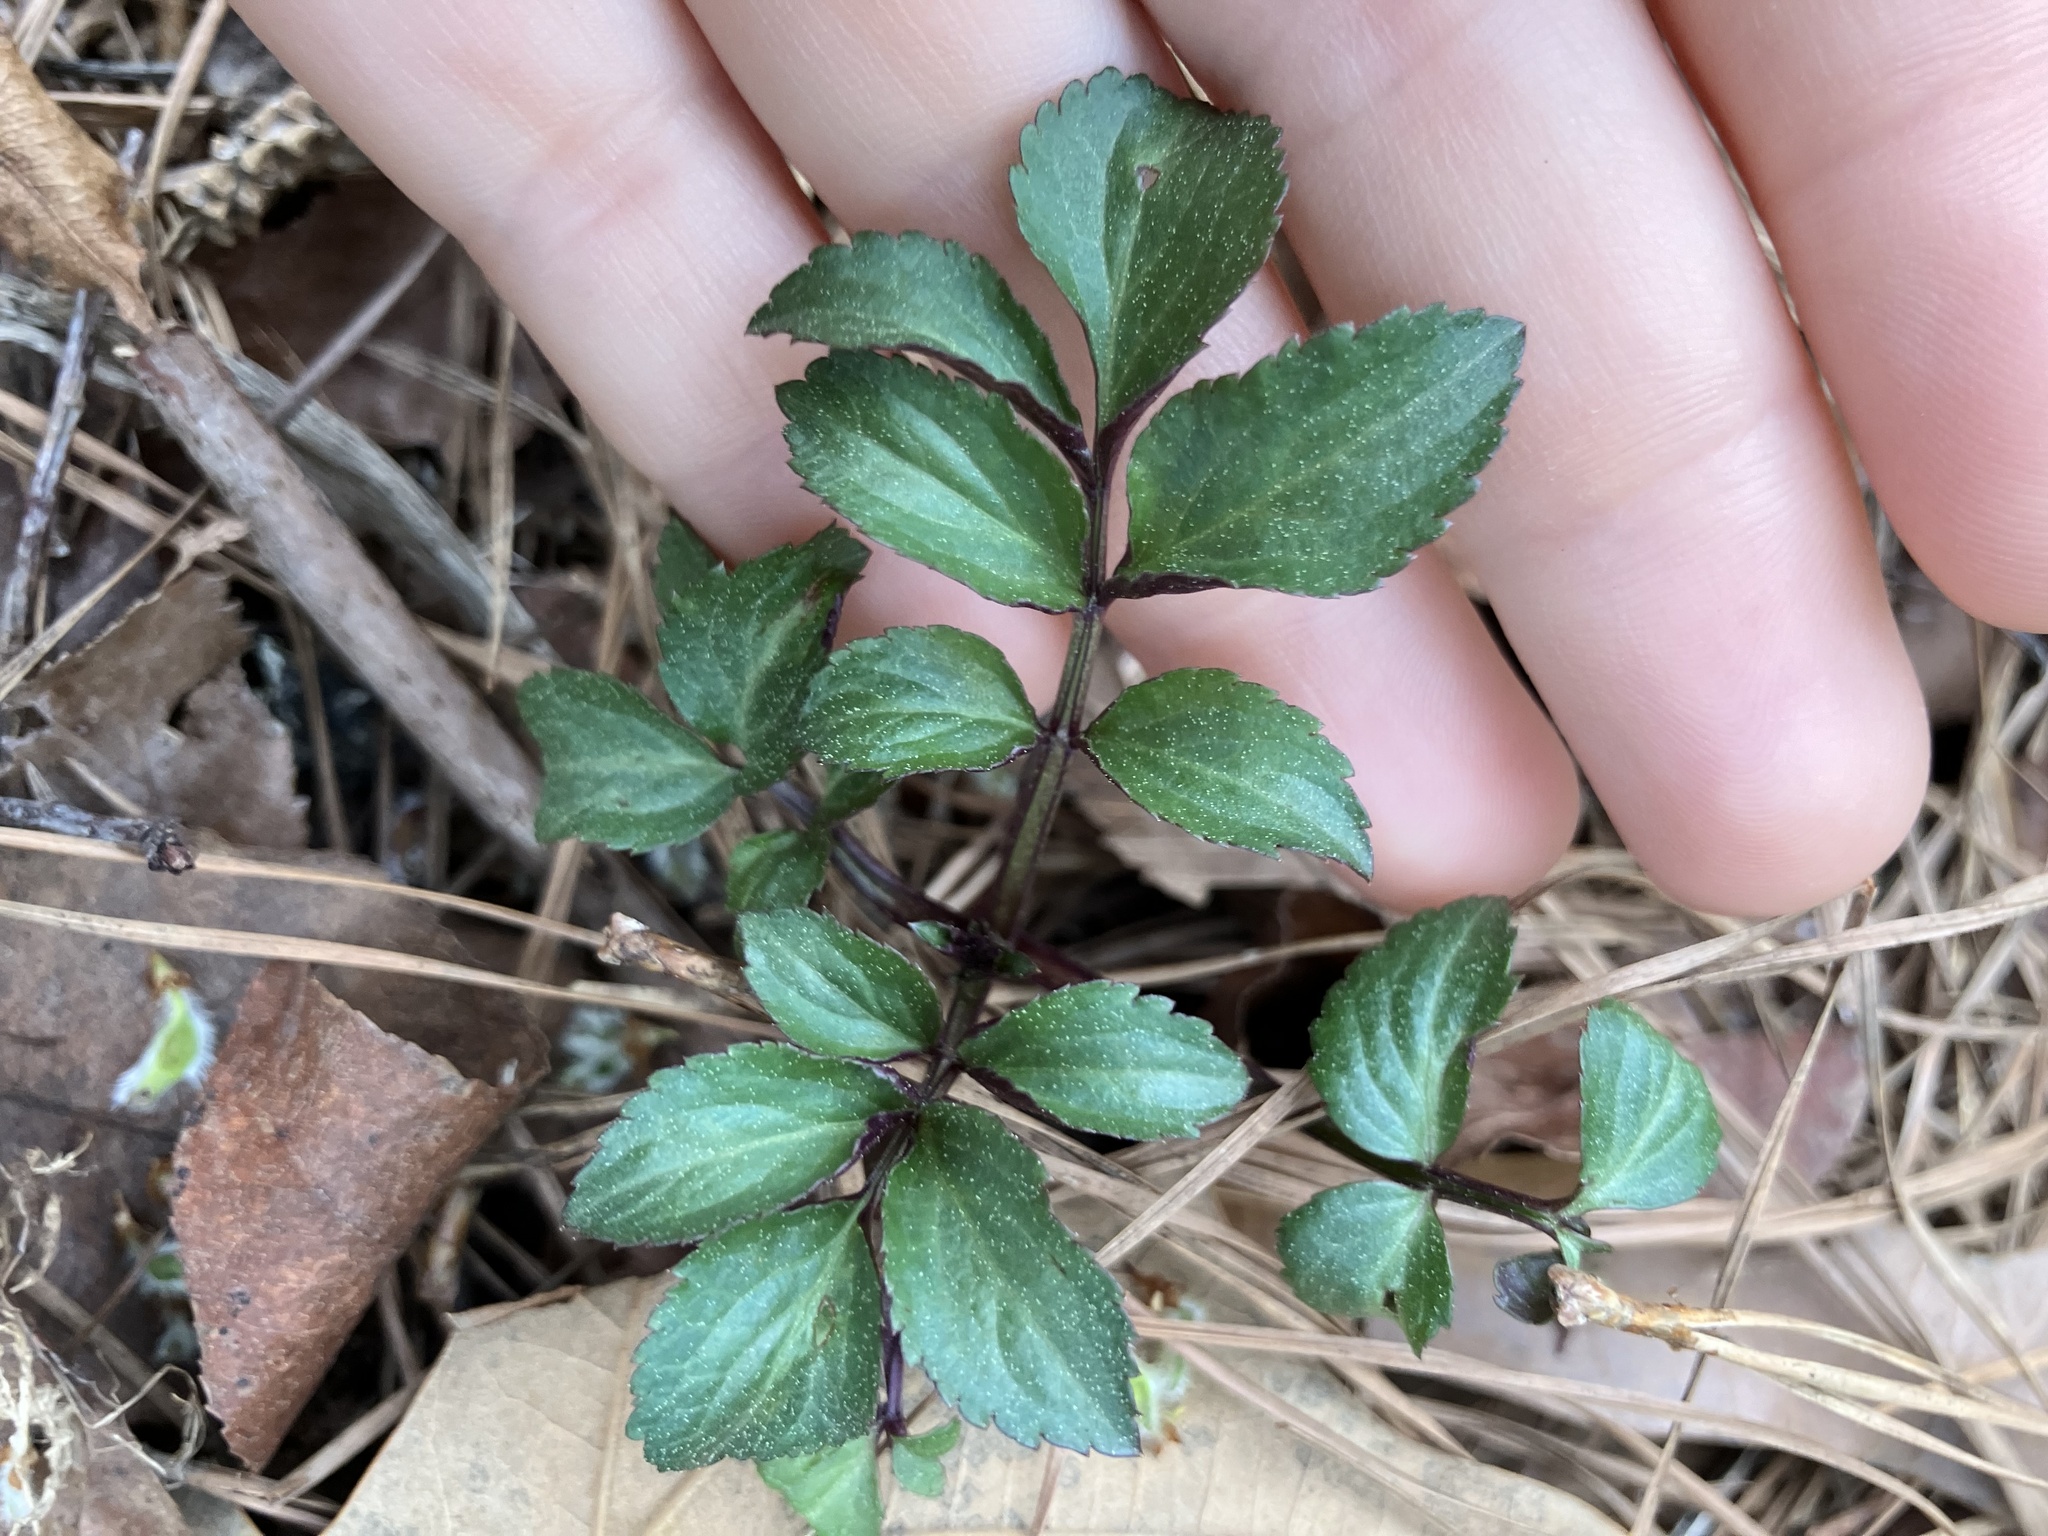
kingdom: Plantae
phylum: Tracheophyta
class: Magnoliopsida
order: Dipsacales
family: Viburnaceae
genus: Sambucus
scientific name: Sambucus canadensis
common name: American elder
